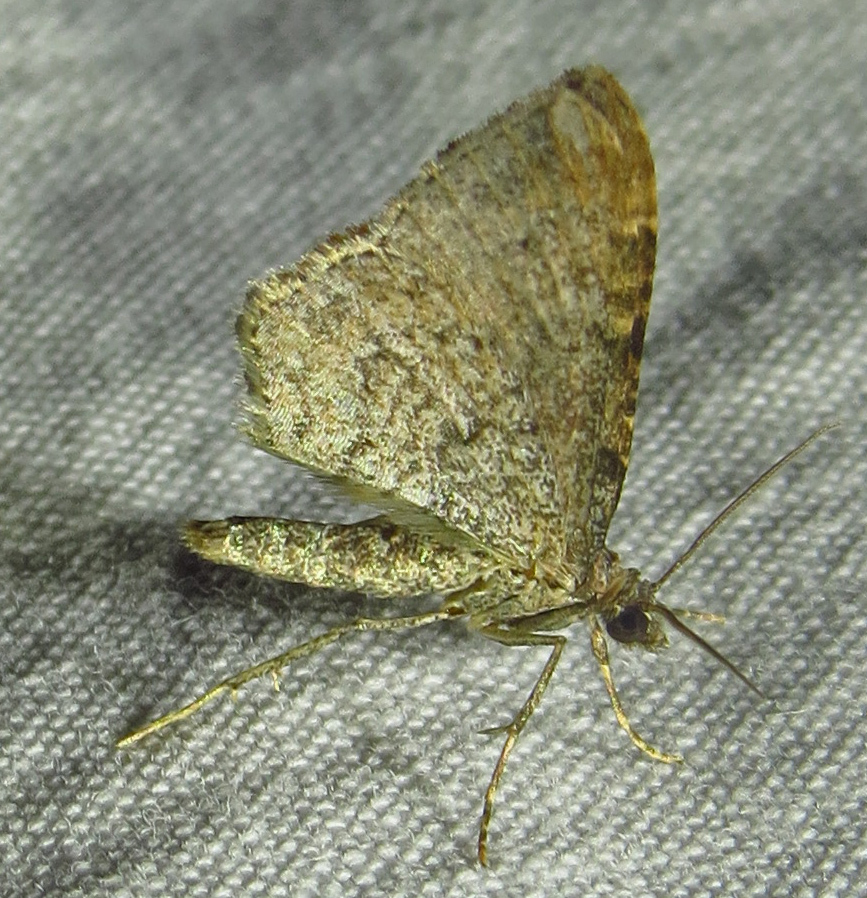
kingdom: Animalia
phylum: Arthropoda
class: Insecta
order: Lepidoptera
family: Geometridae
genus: Orthonama
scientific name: Orthonama obstipata
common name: The gem
